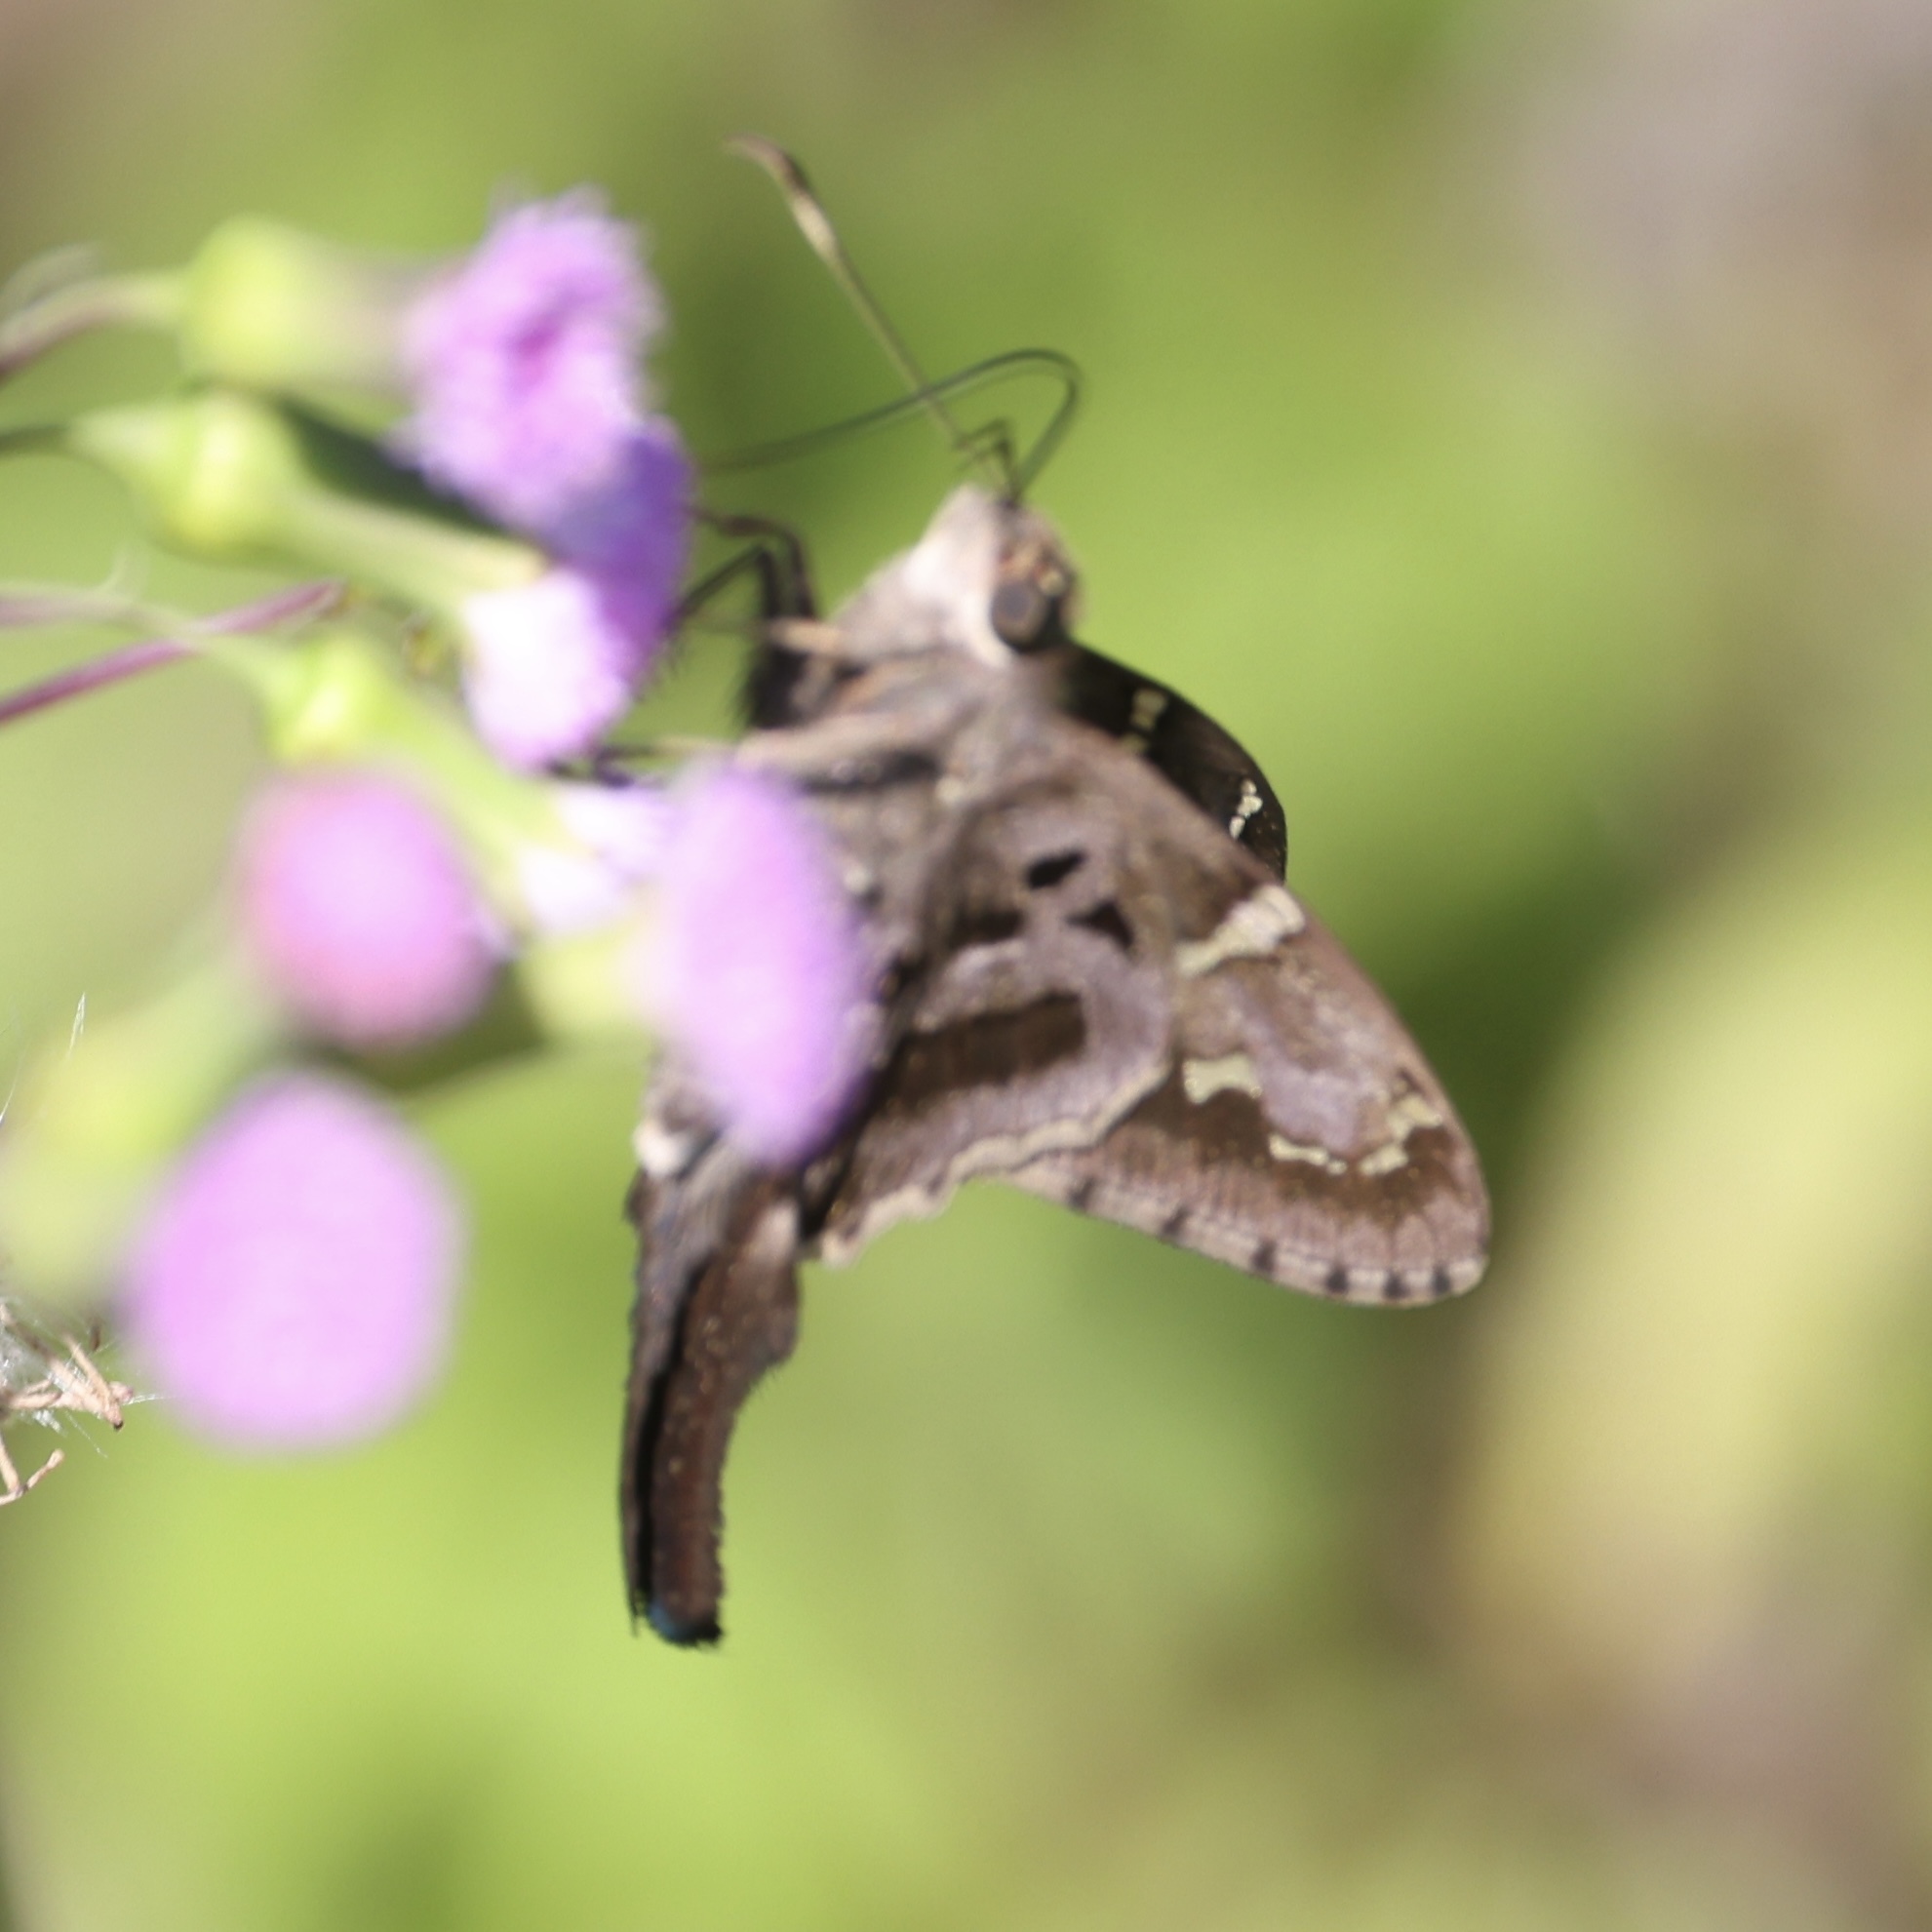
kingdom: Animalia
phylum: Arthropoda
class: Insecta
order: Lepidoptera
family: Hesperiidae
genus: Urbanus
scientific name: Urbanus proteus
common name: Long-tailed skipper
